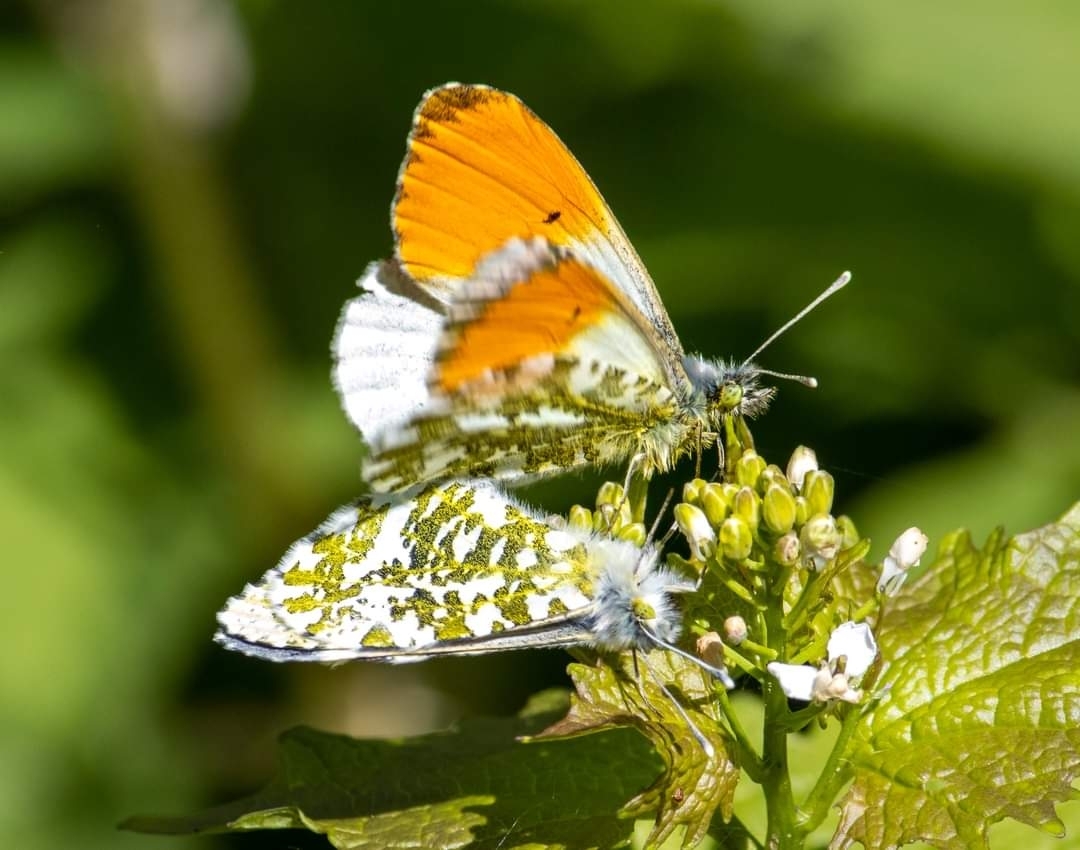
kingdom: Animalia
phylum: Arthropoda
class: Insecta
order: Lepidoptera
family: Pieridae
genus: Anthocharis
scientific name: Anthocharis cardamines
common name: Orange-tip
